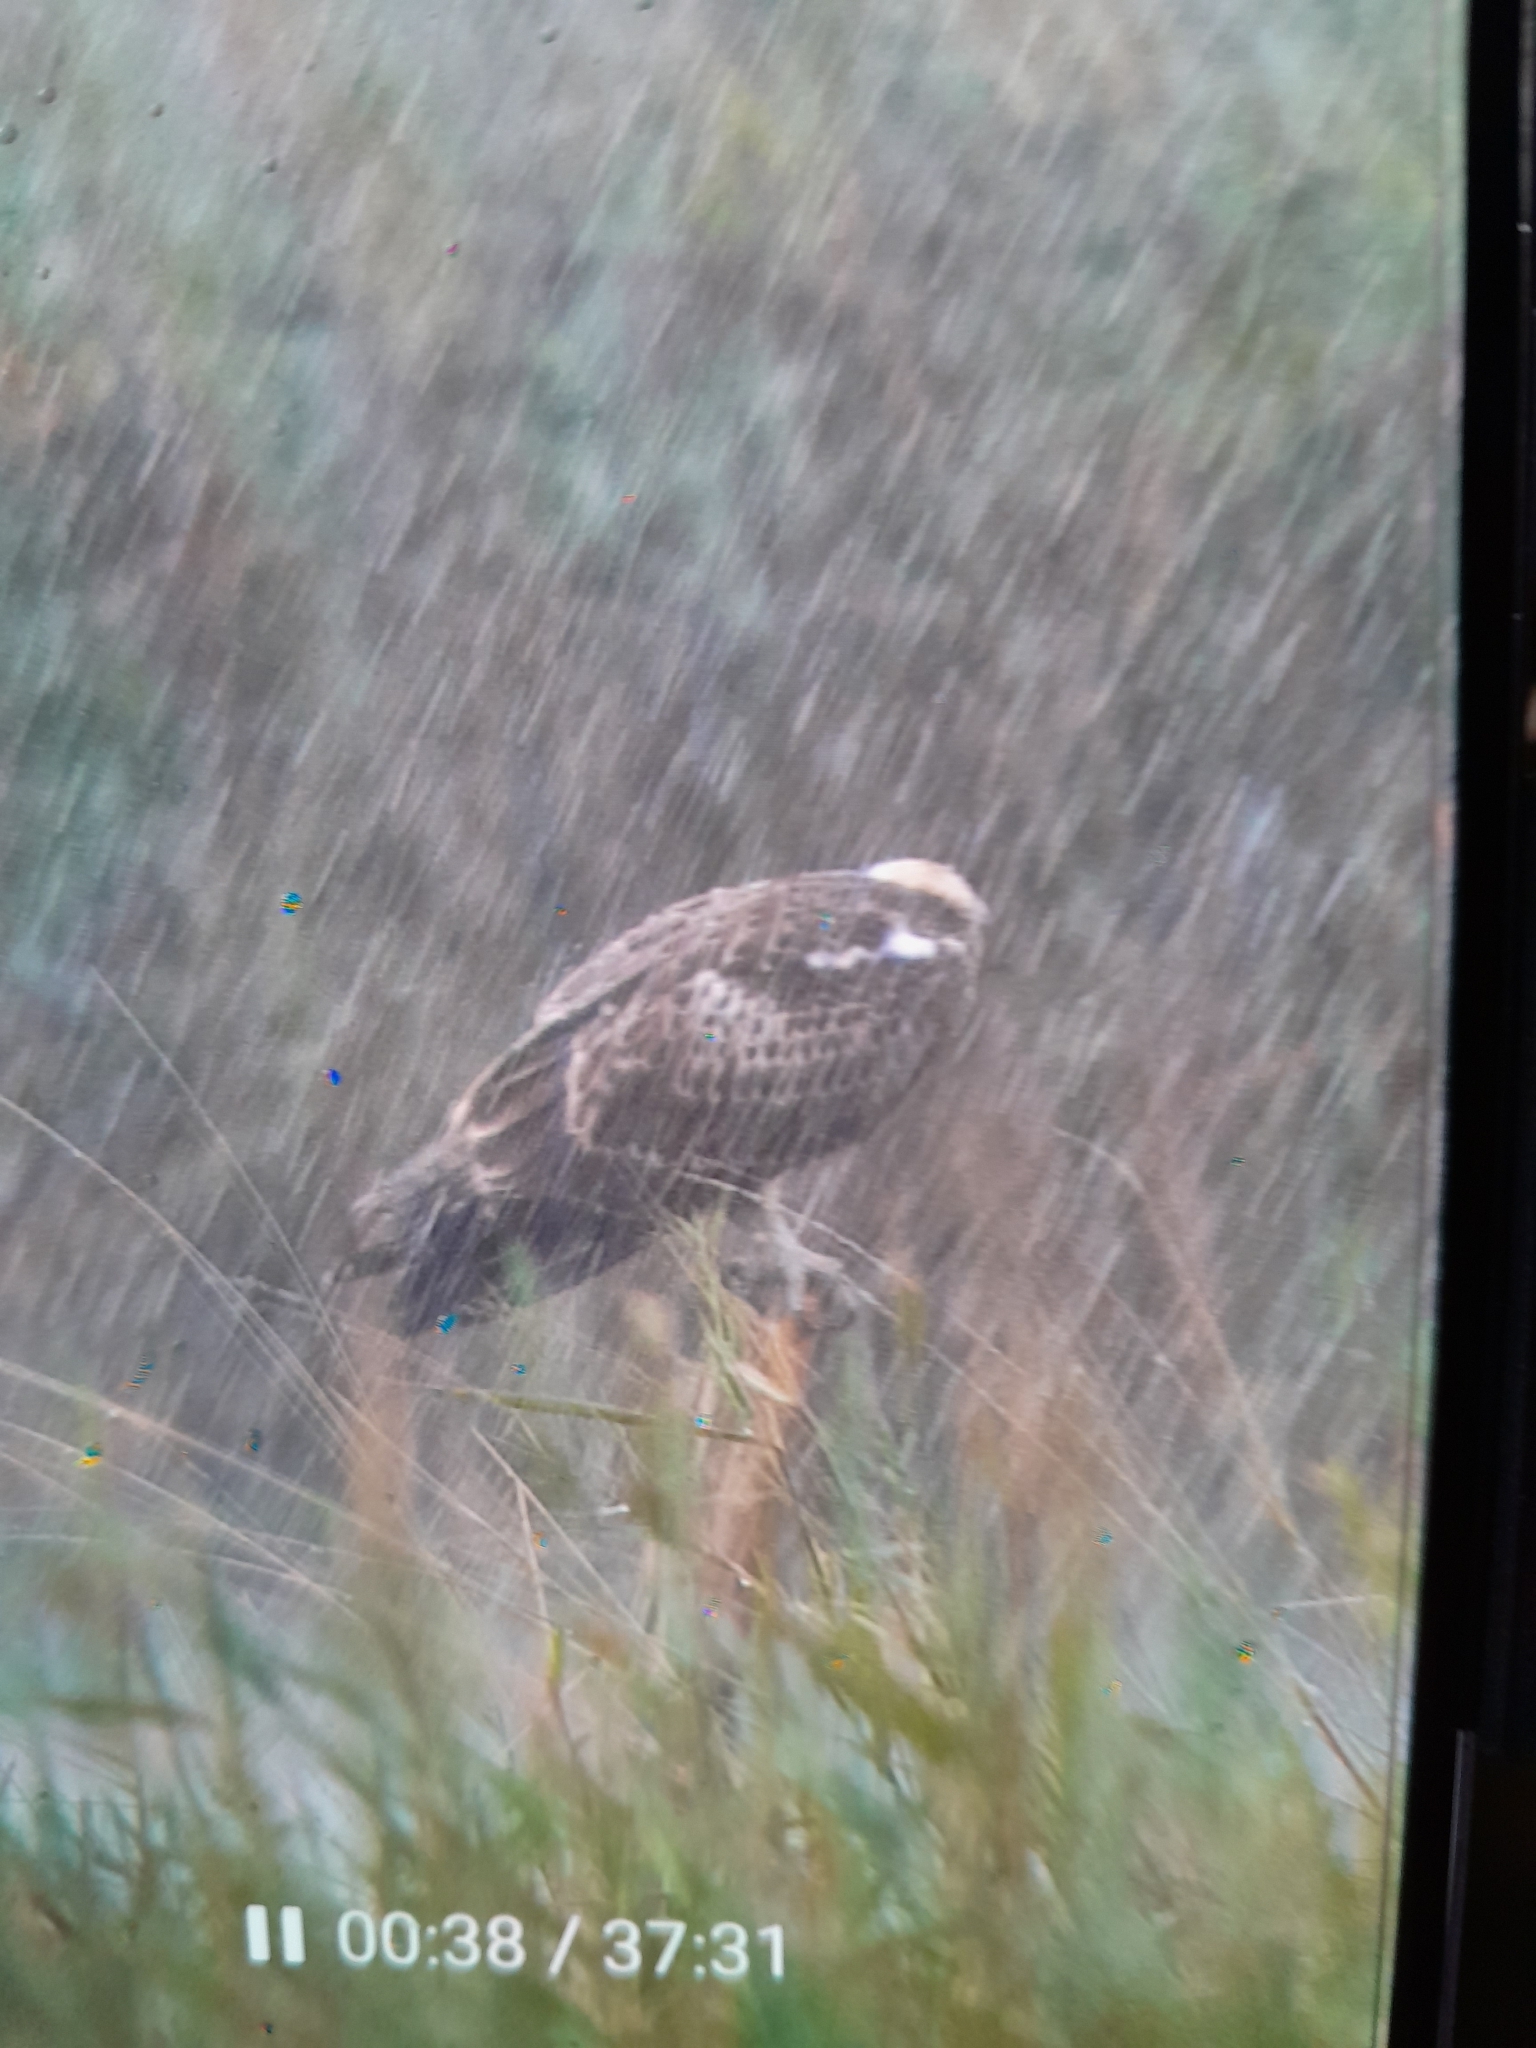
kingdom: Animalia
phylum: Chordata
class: Aves
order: Accipitriformes
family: Pandionidae
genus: Pandion
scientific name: Pandion haliaetus
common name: Osprey
